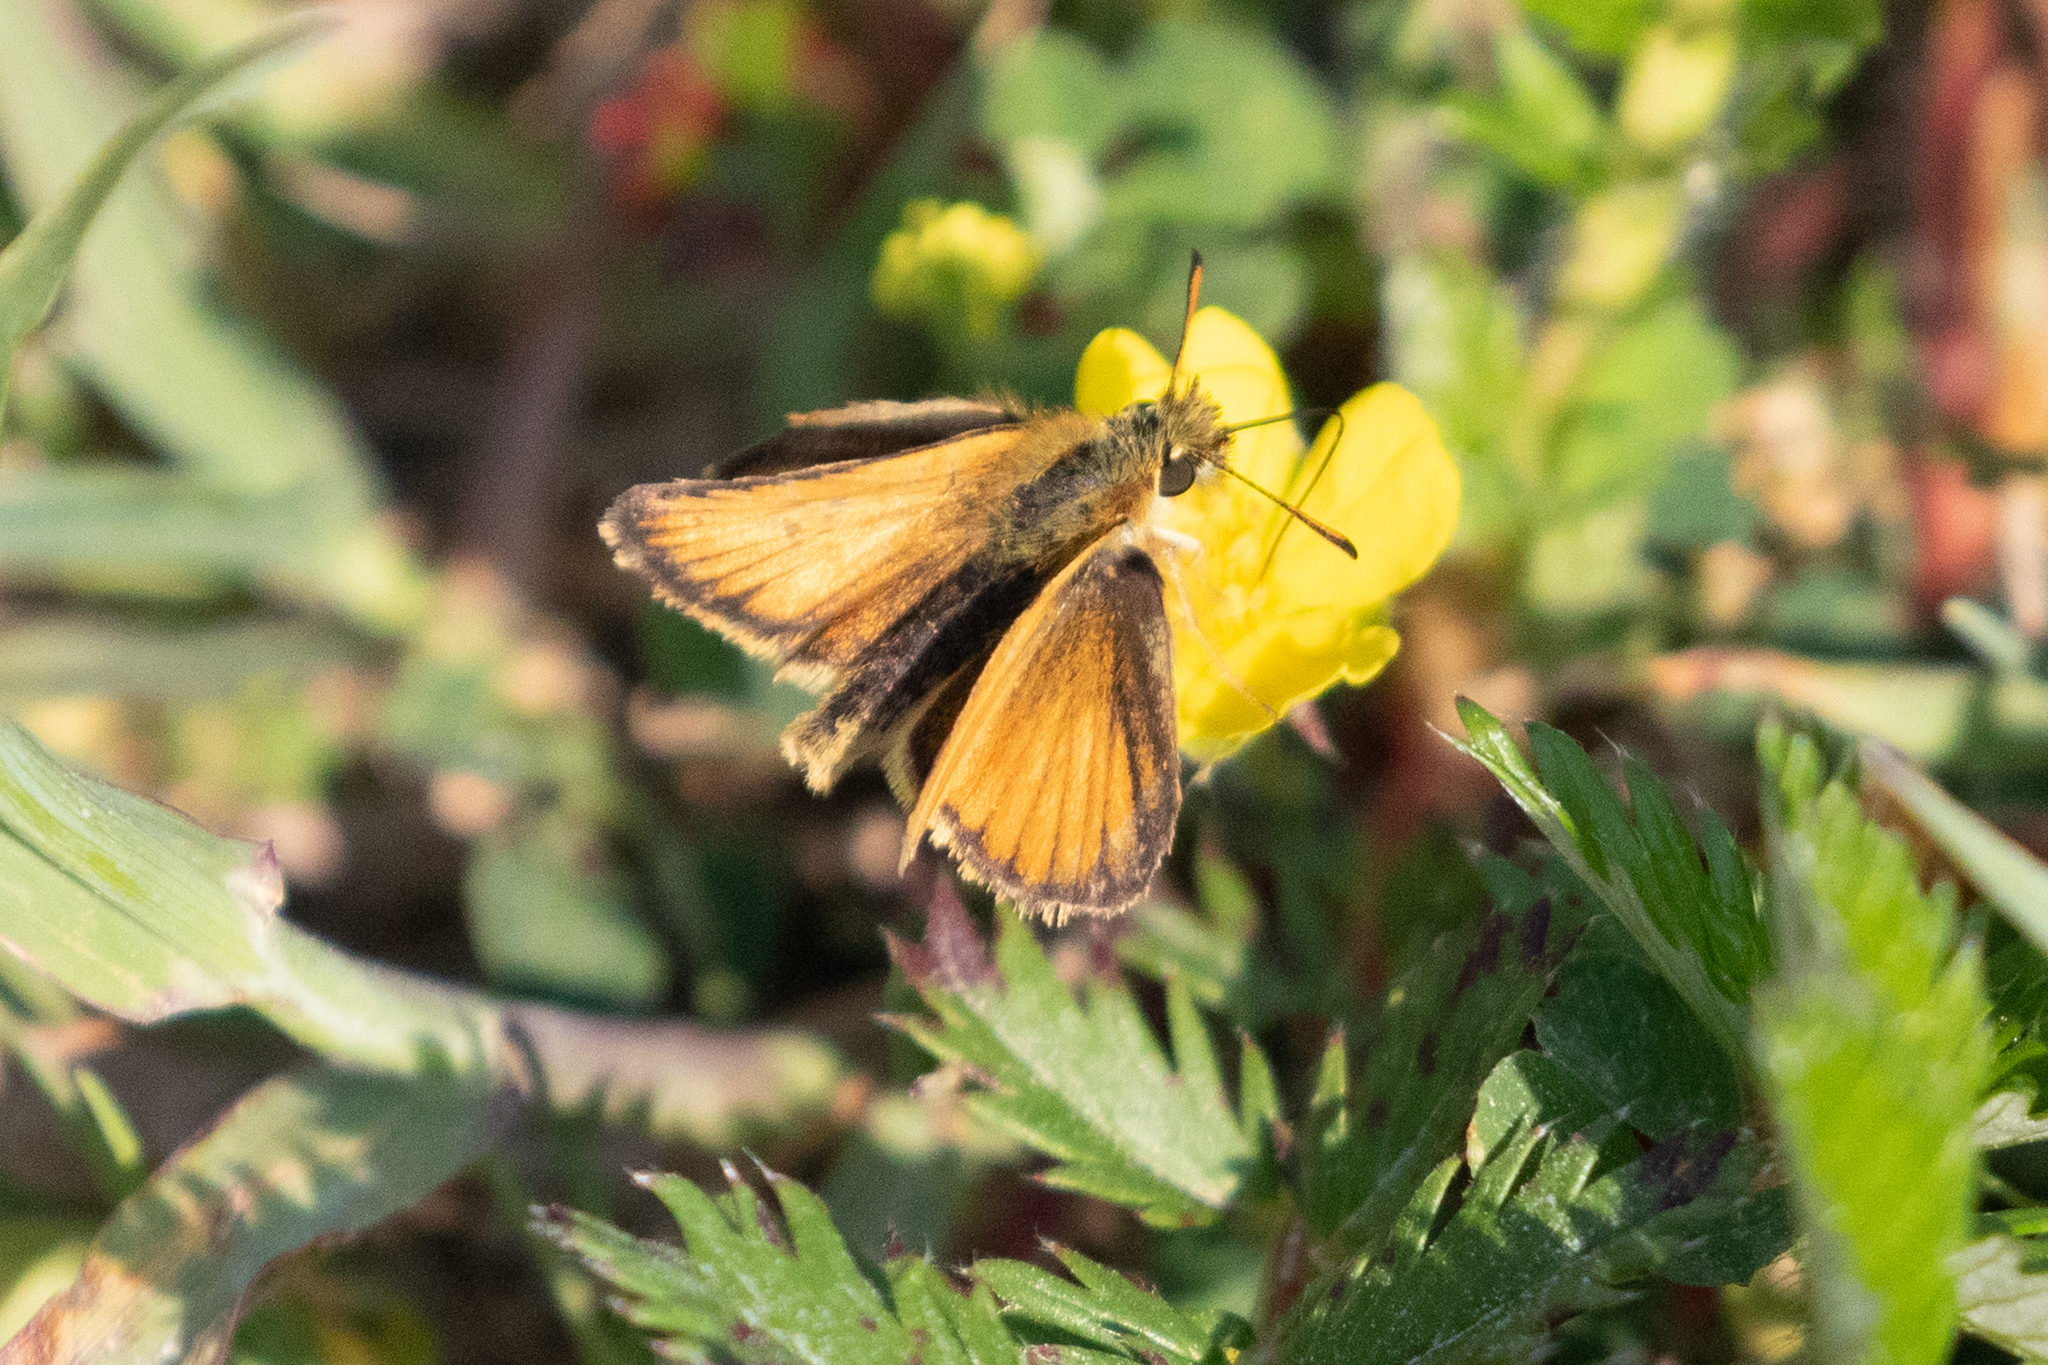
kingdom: Animalia
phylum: Arthropoda
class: Insecta
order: Lepidoptera
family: Hesperiidae
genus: Thymelicus
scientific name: Thymelicus lineola
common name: Essex skipper
